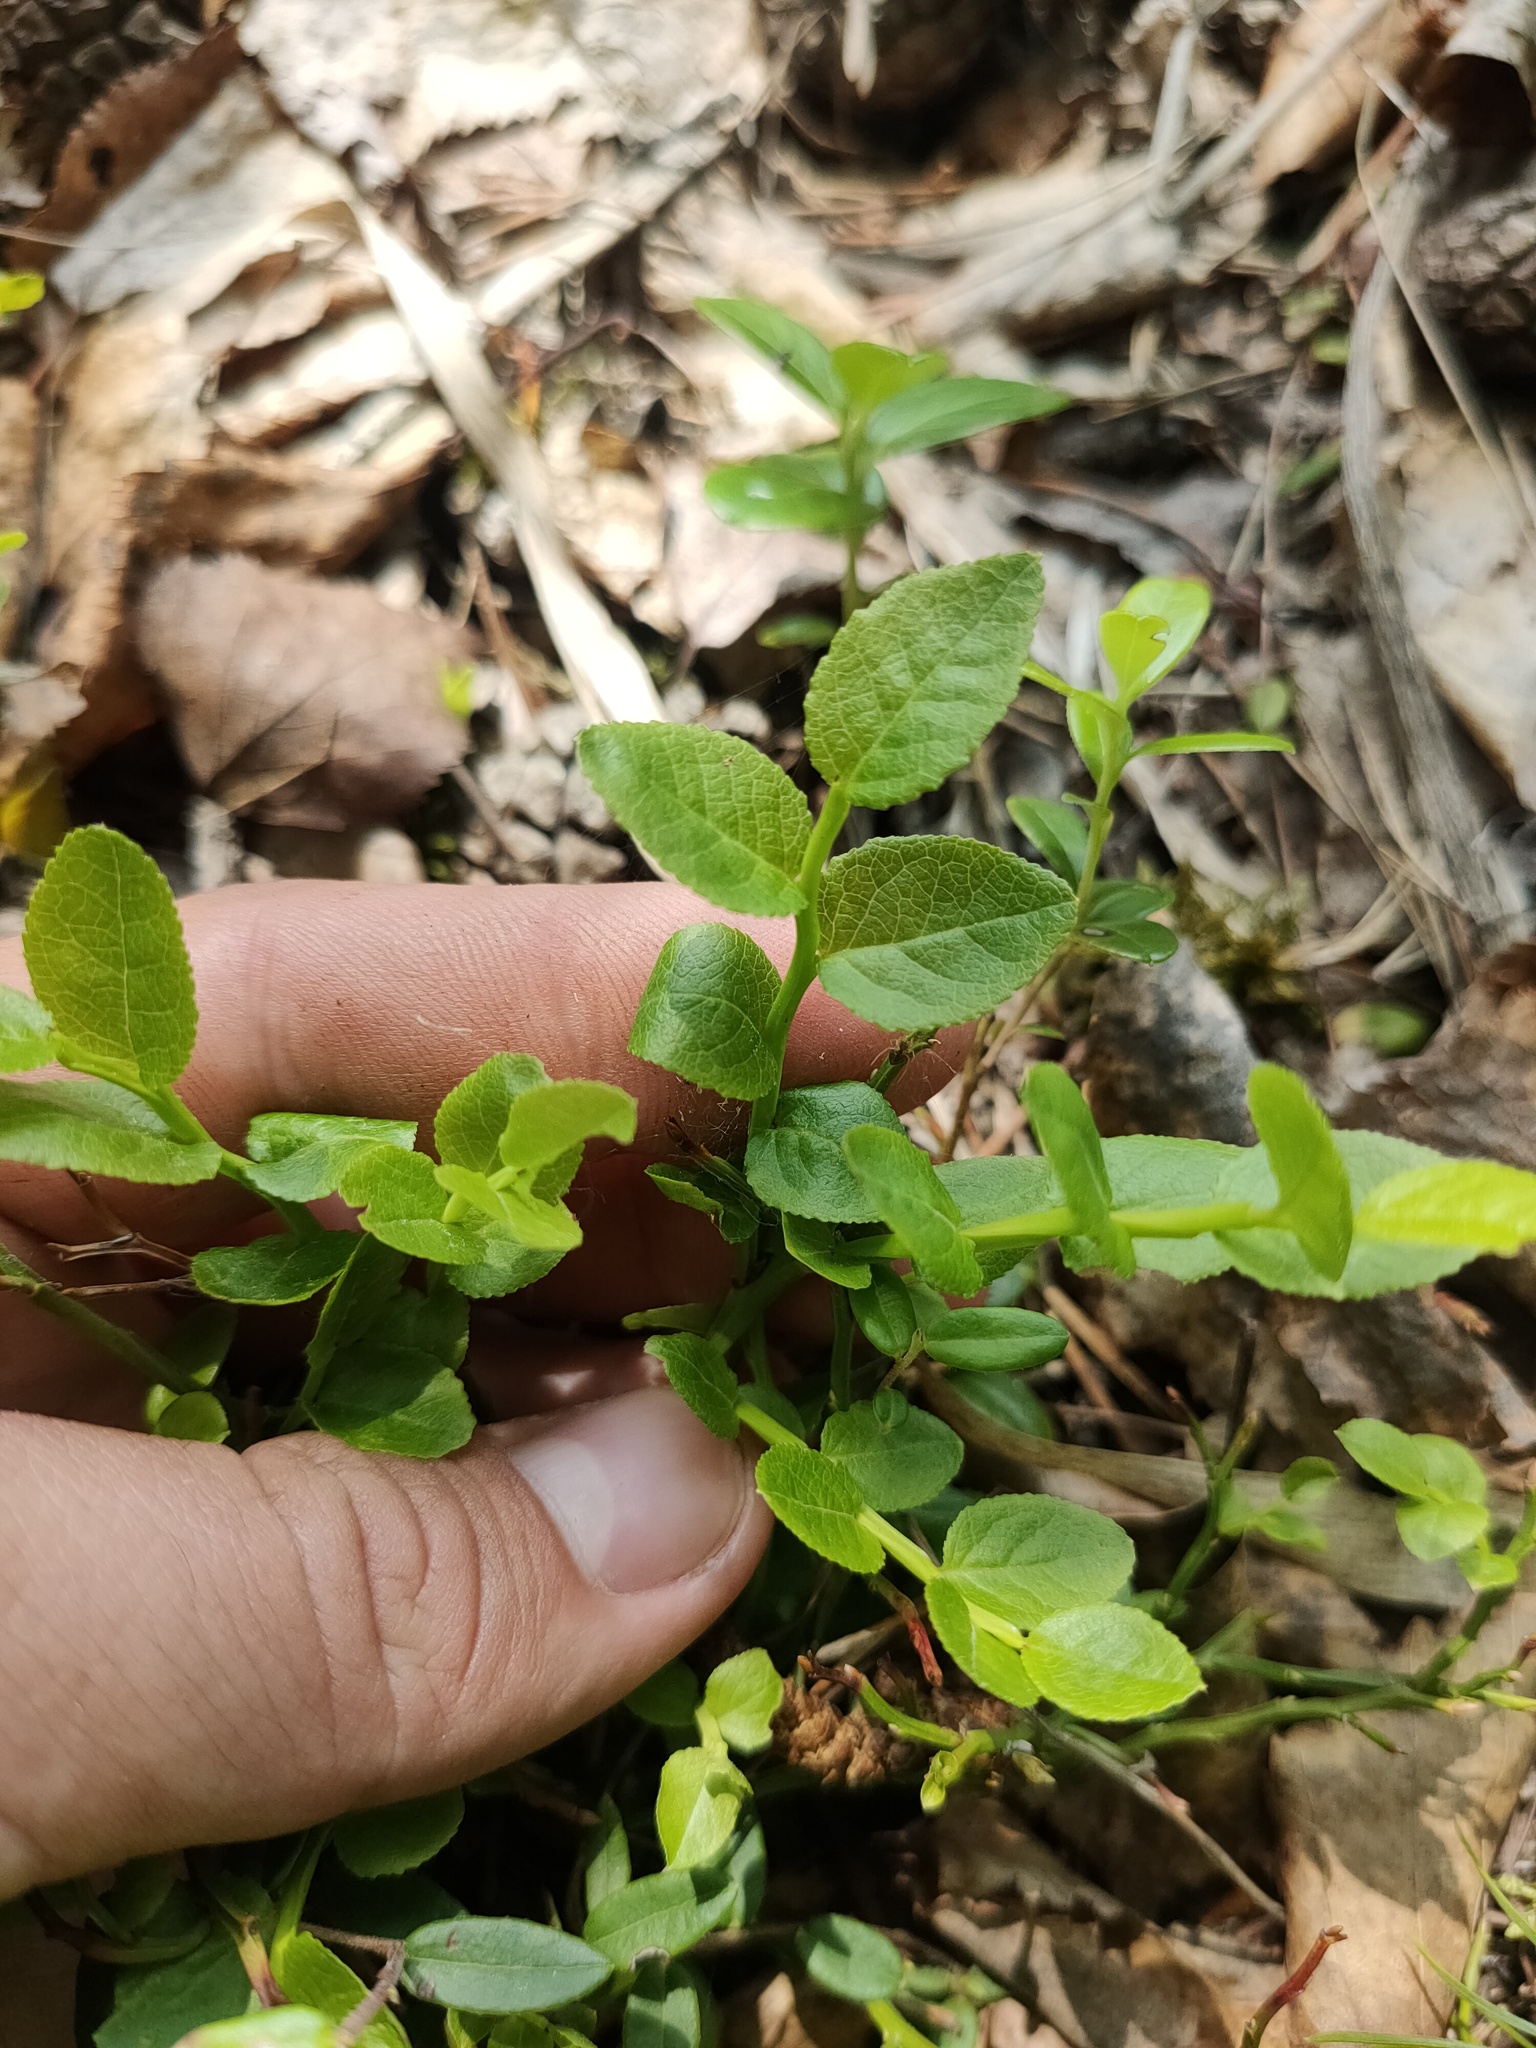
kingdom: Plantae
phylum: Tracheophyta
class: Magnoliopsida
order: Ericales
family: Ericaceae
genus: Vaccinium
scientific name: Vaccinium myrtillus
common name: Bilberry
